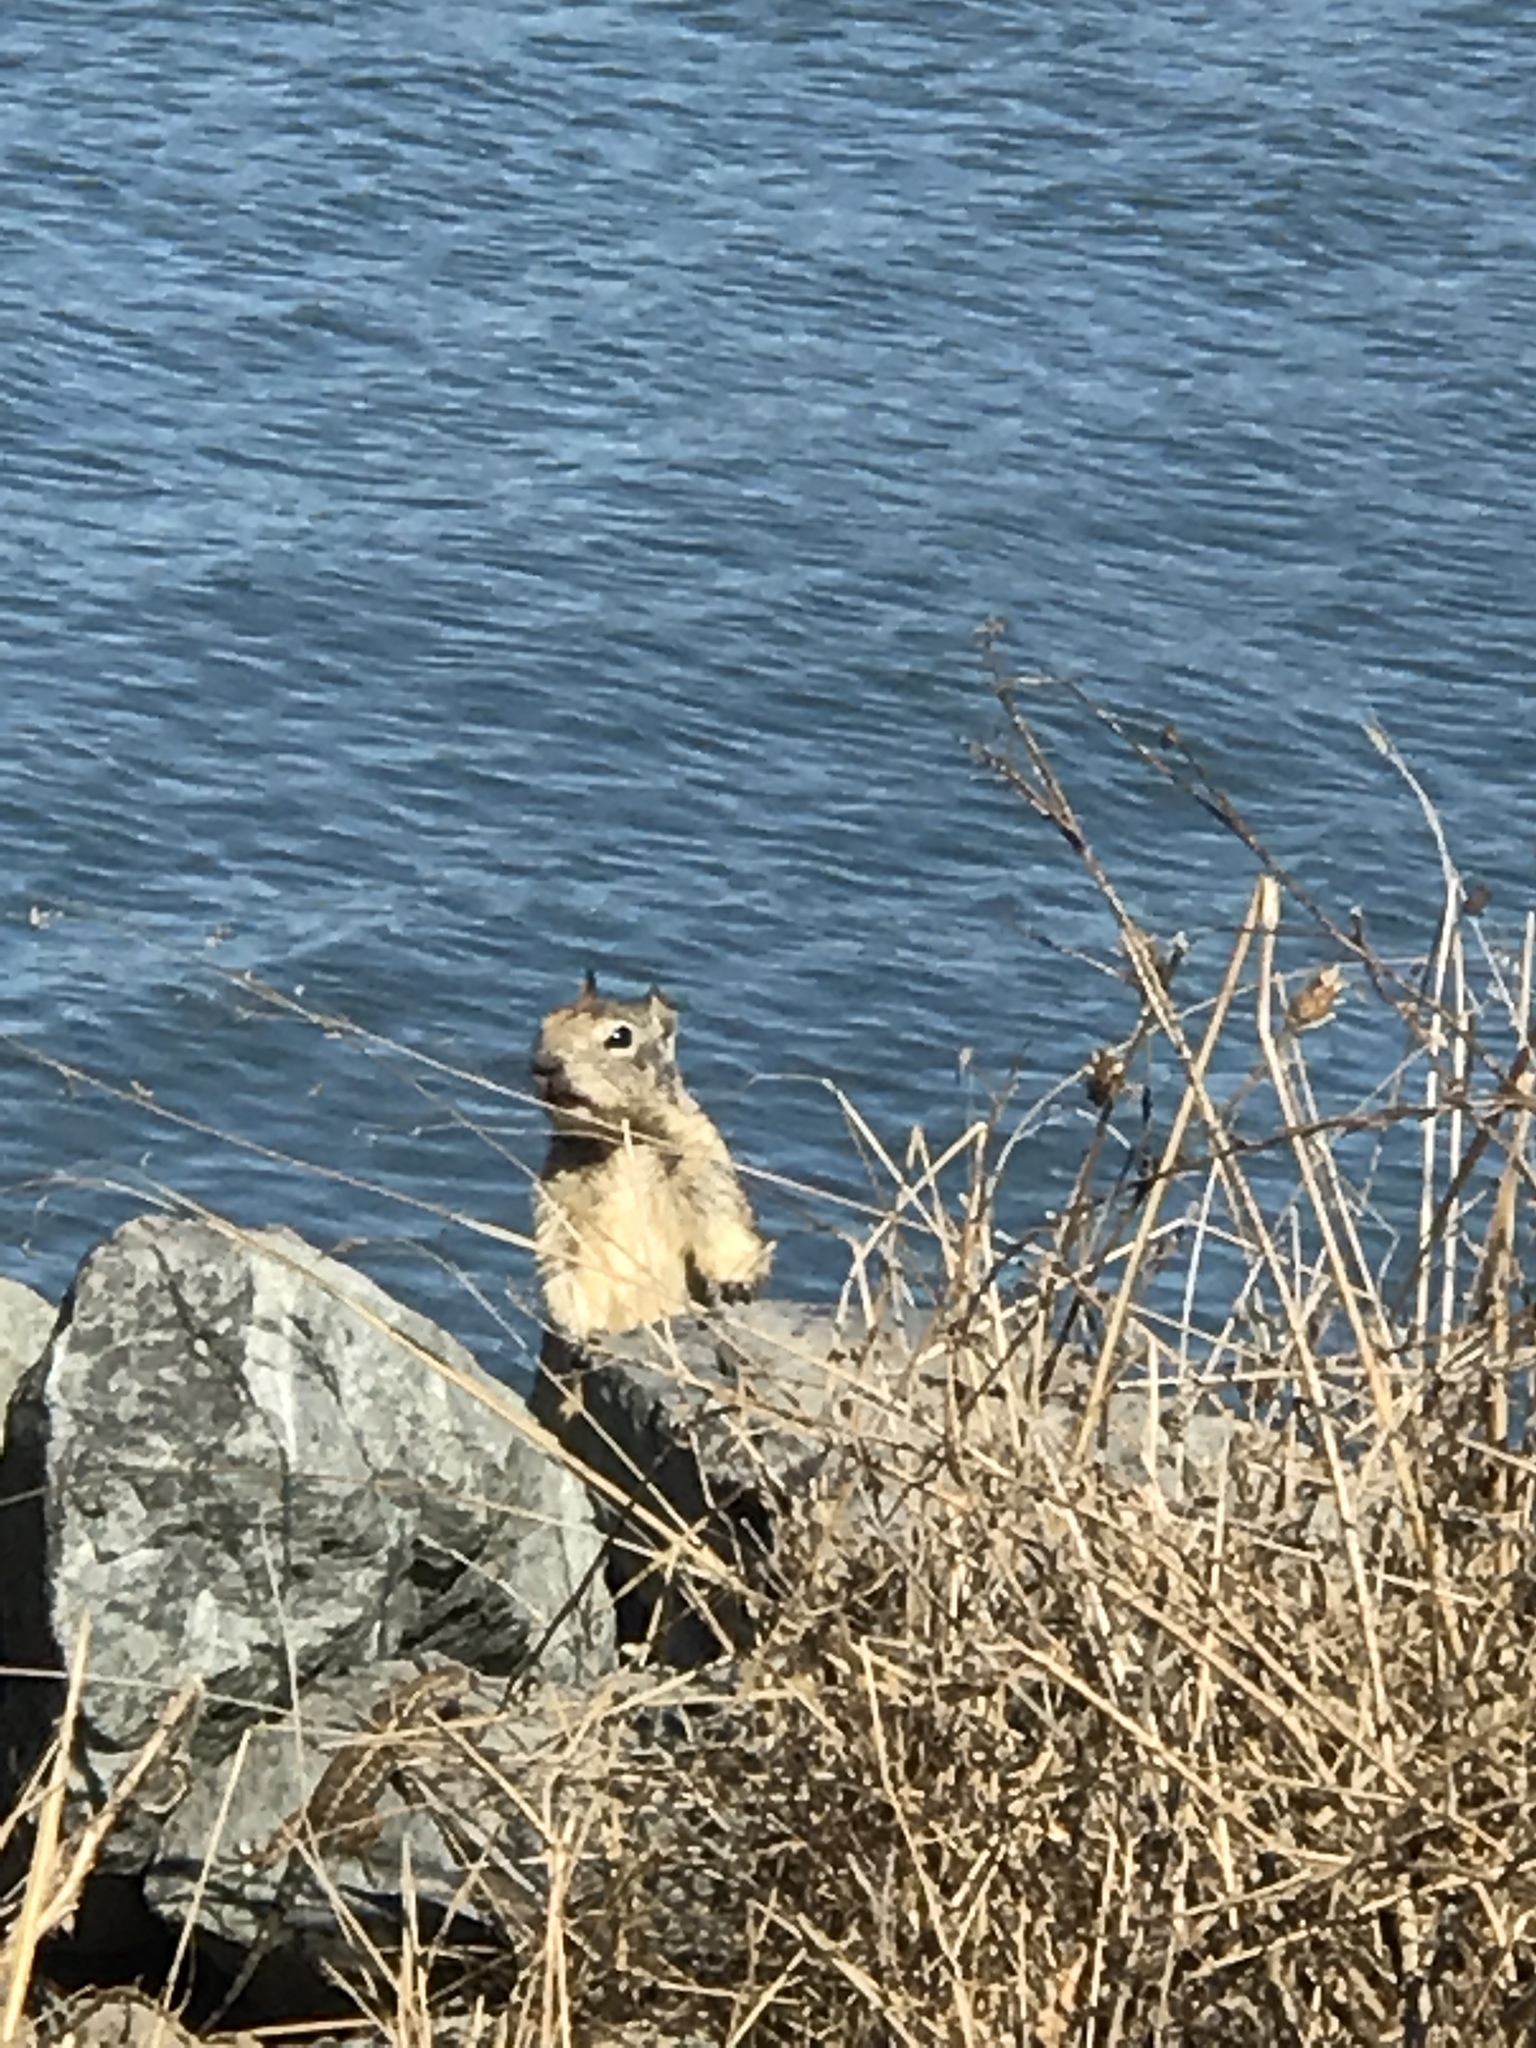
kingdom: Animalia
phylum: Chordata
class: Mammalia
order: Rodentia
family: Sciuridae
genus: Otospermophilus
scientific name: Otospermophilus beecheyi
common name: California ground squirrel
